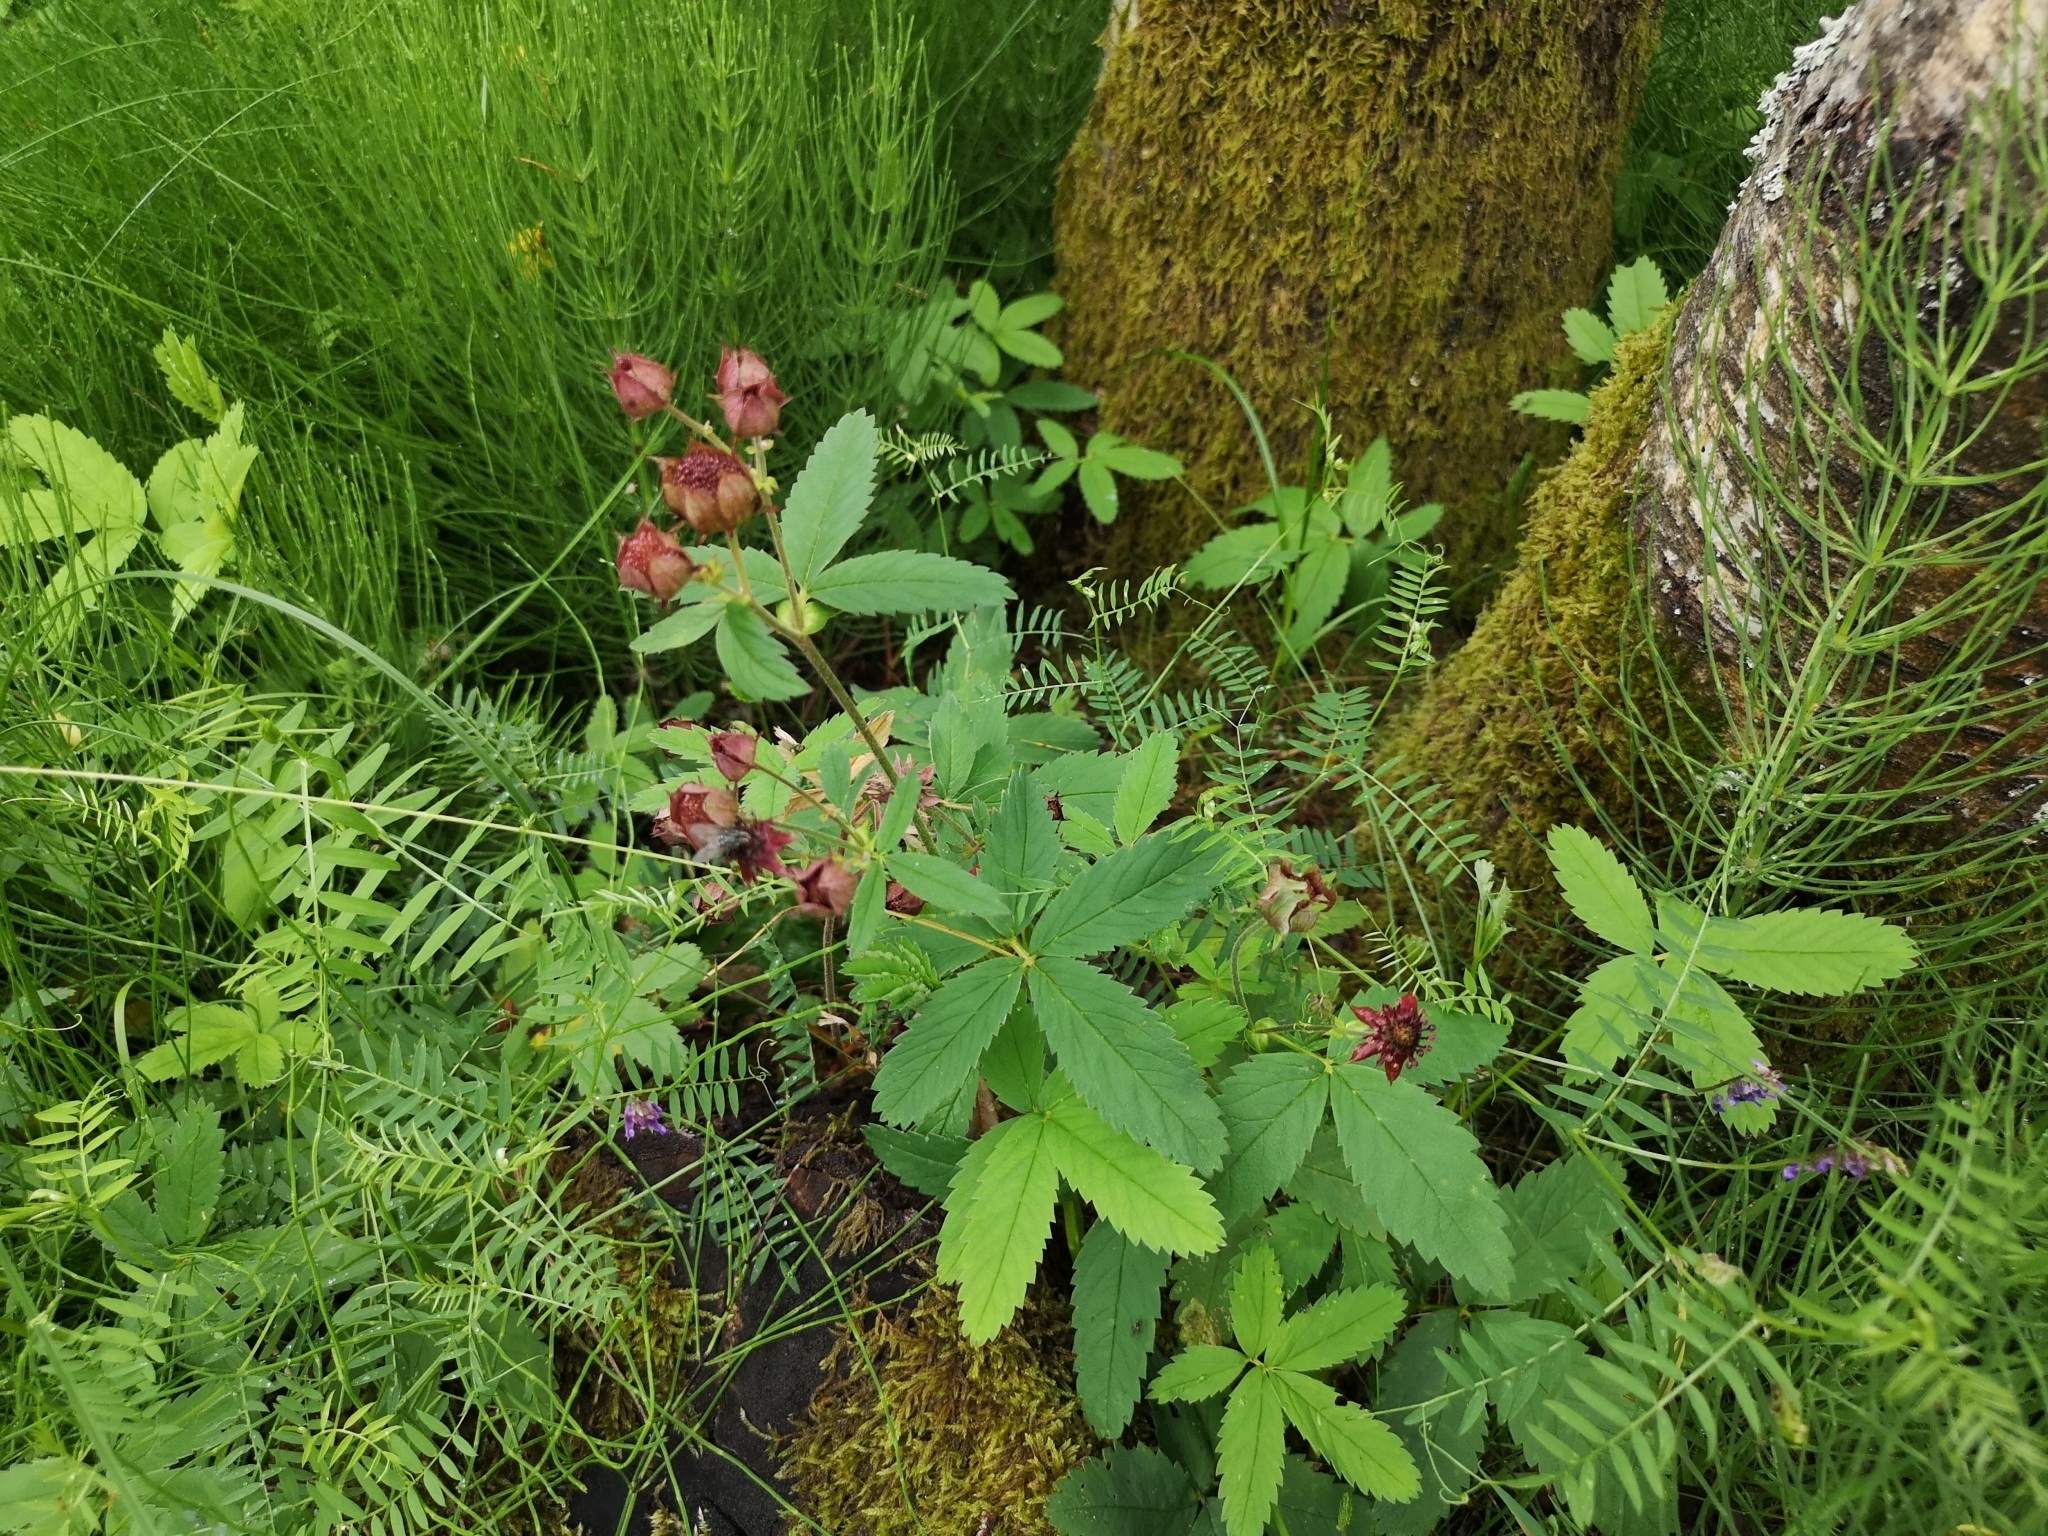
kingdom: Plantae
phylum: Tracheophyta
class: Magnoliopsida
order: Rosales
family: Rosaceae
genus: Comarum
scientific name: Comarum palustre
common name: Marsh cinquefoil
